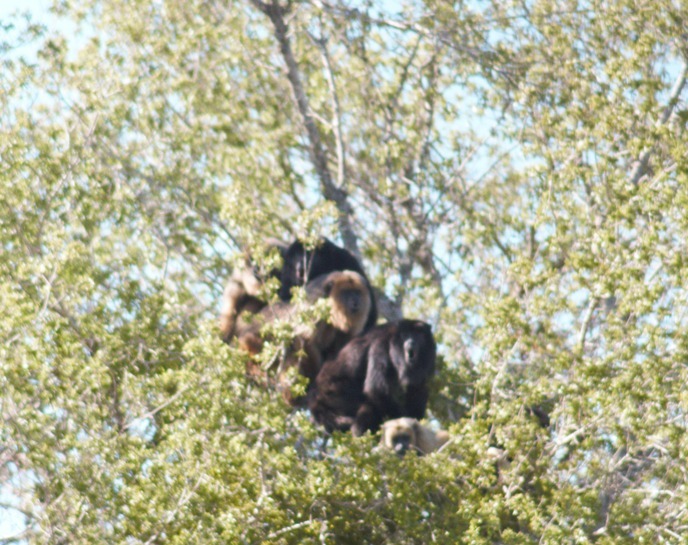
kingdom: Animalia
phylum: Chordata
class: Mammalia
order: Primates
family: Atelidae
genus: Alouatta
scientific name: Alouatta caraya
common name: Black howler
